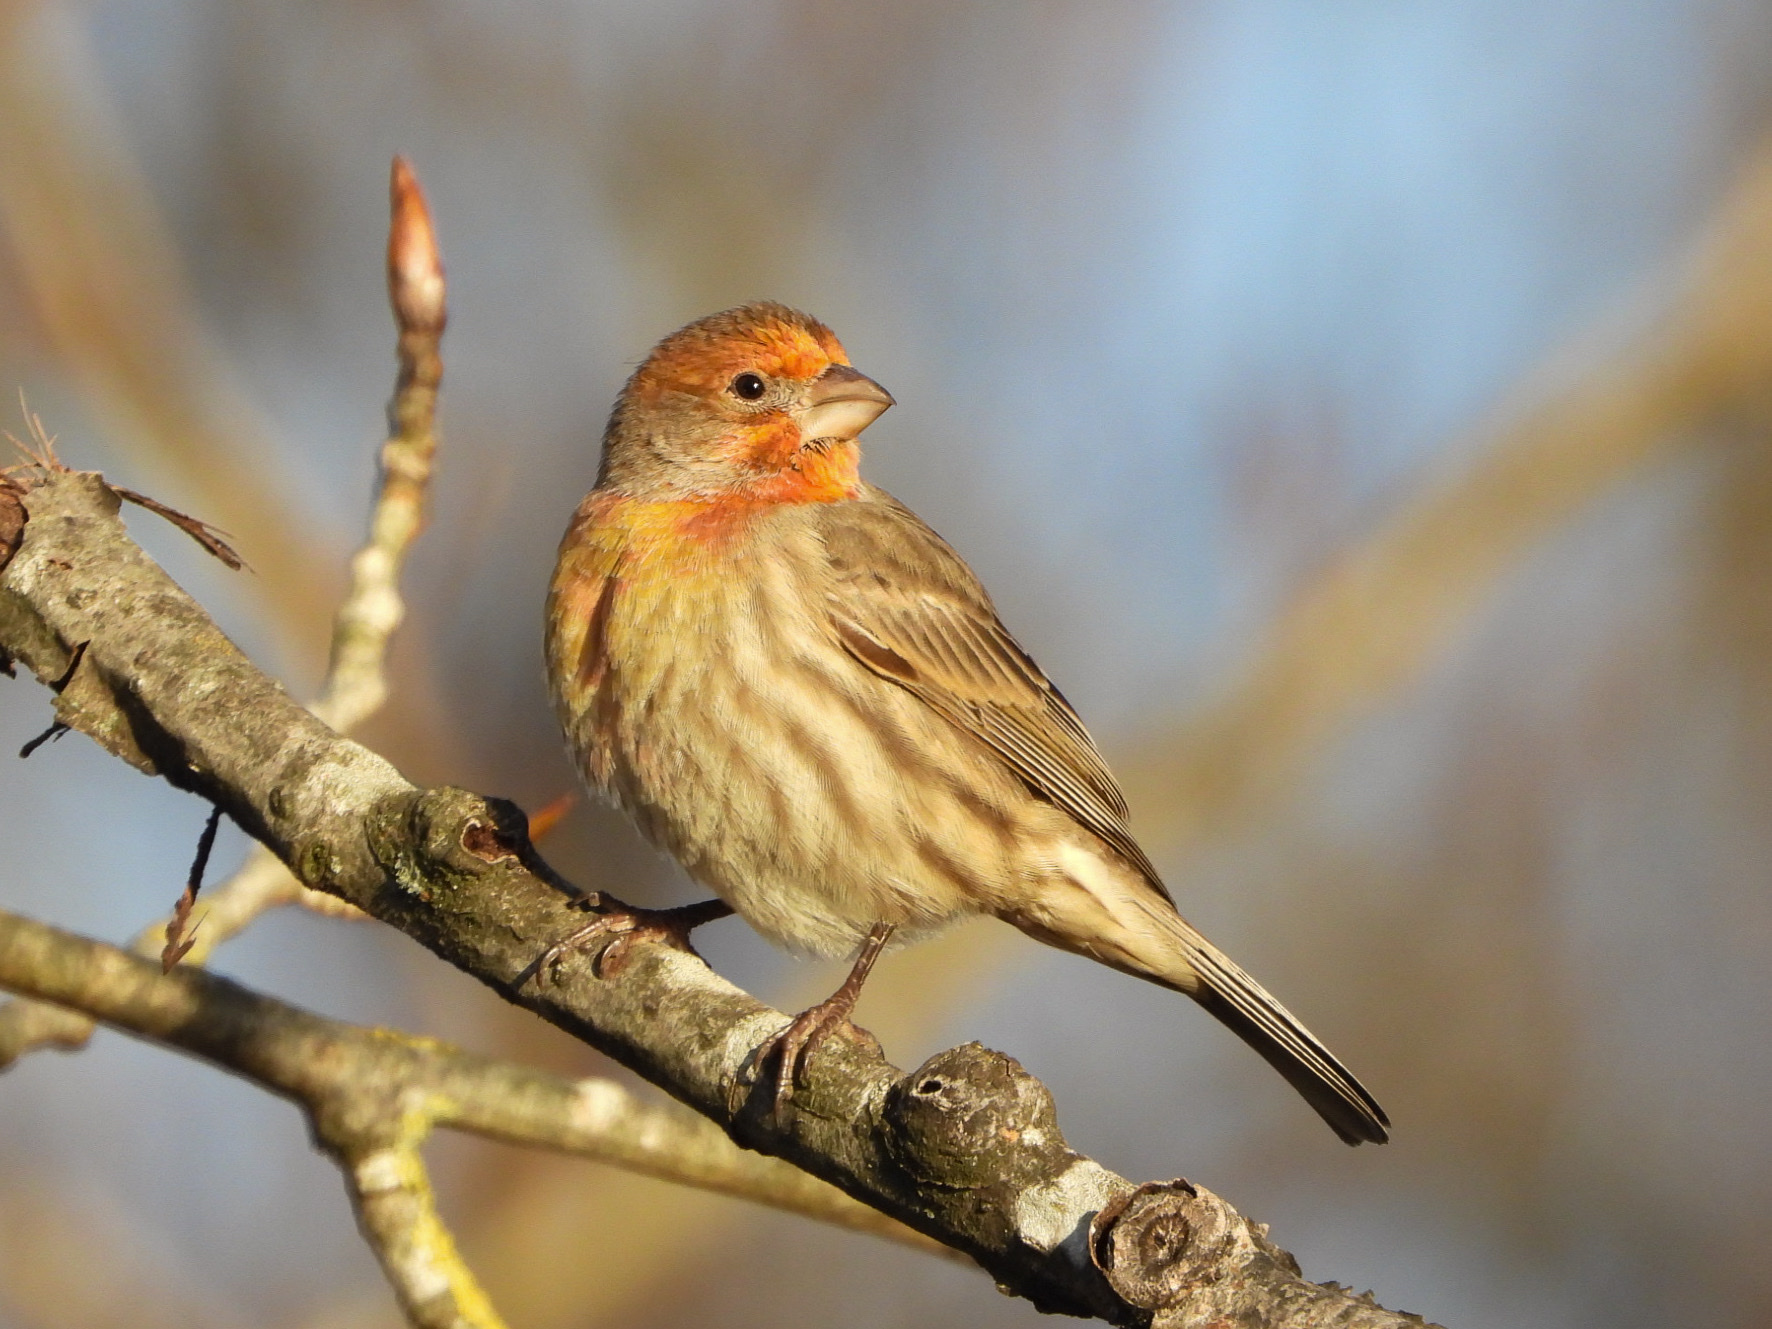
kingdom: Animalia
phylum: Chordata
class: Aves
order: Passeriformes
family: Fringillidae
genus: Haemorhous
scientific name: Haemorhous mexicanus
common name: House finch
